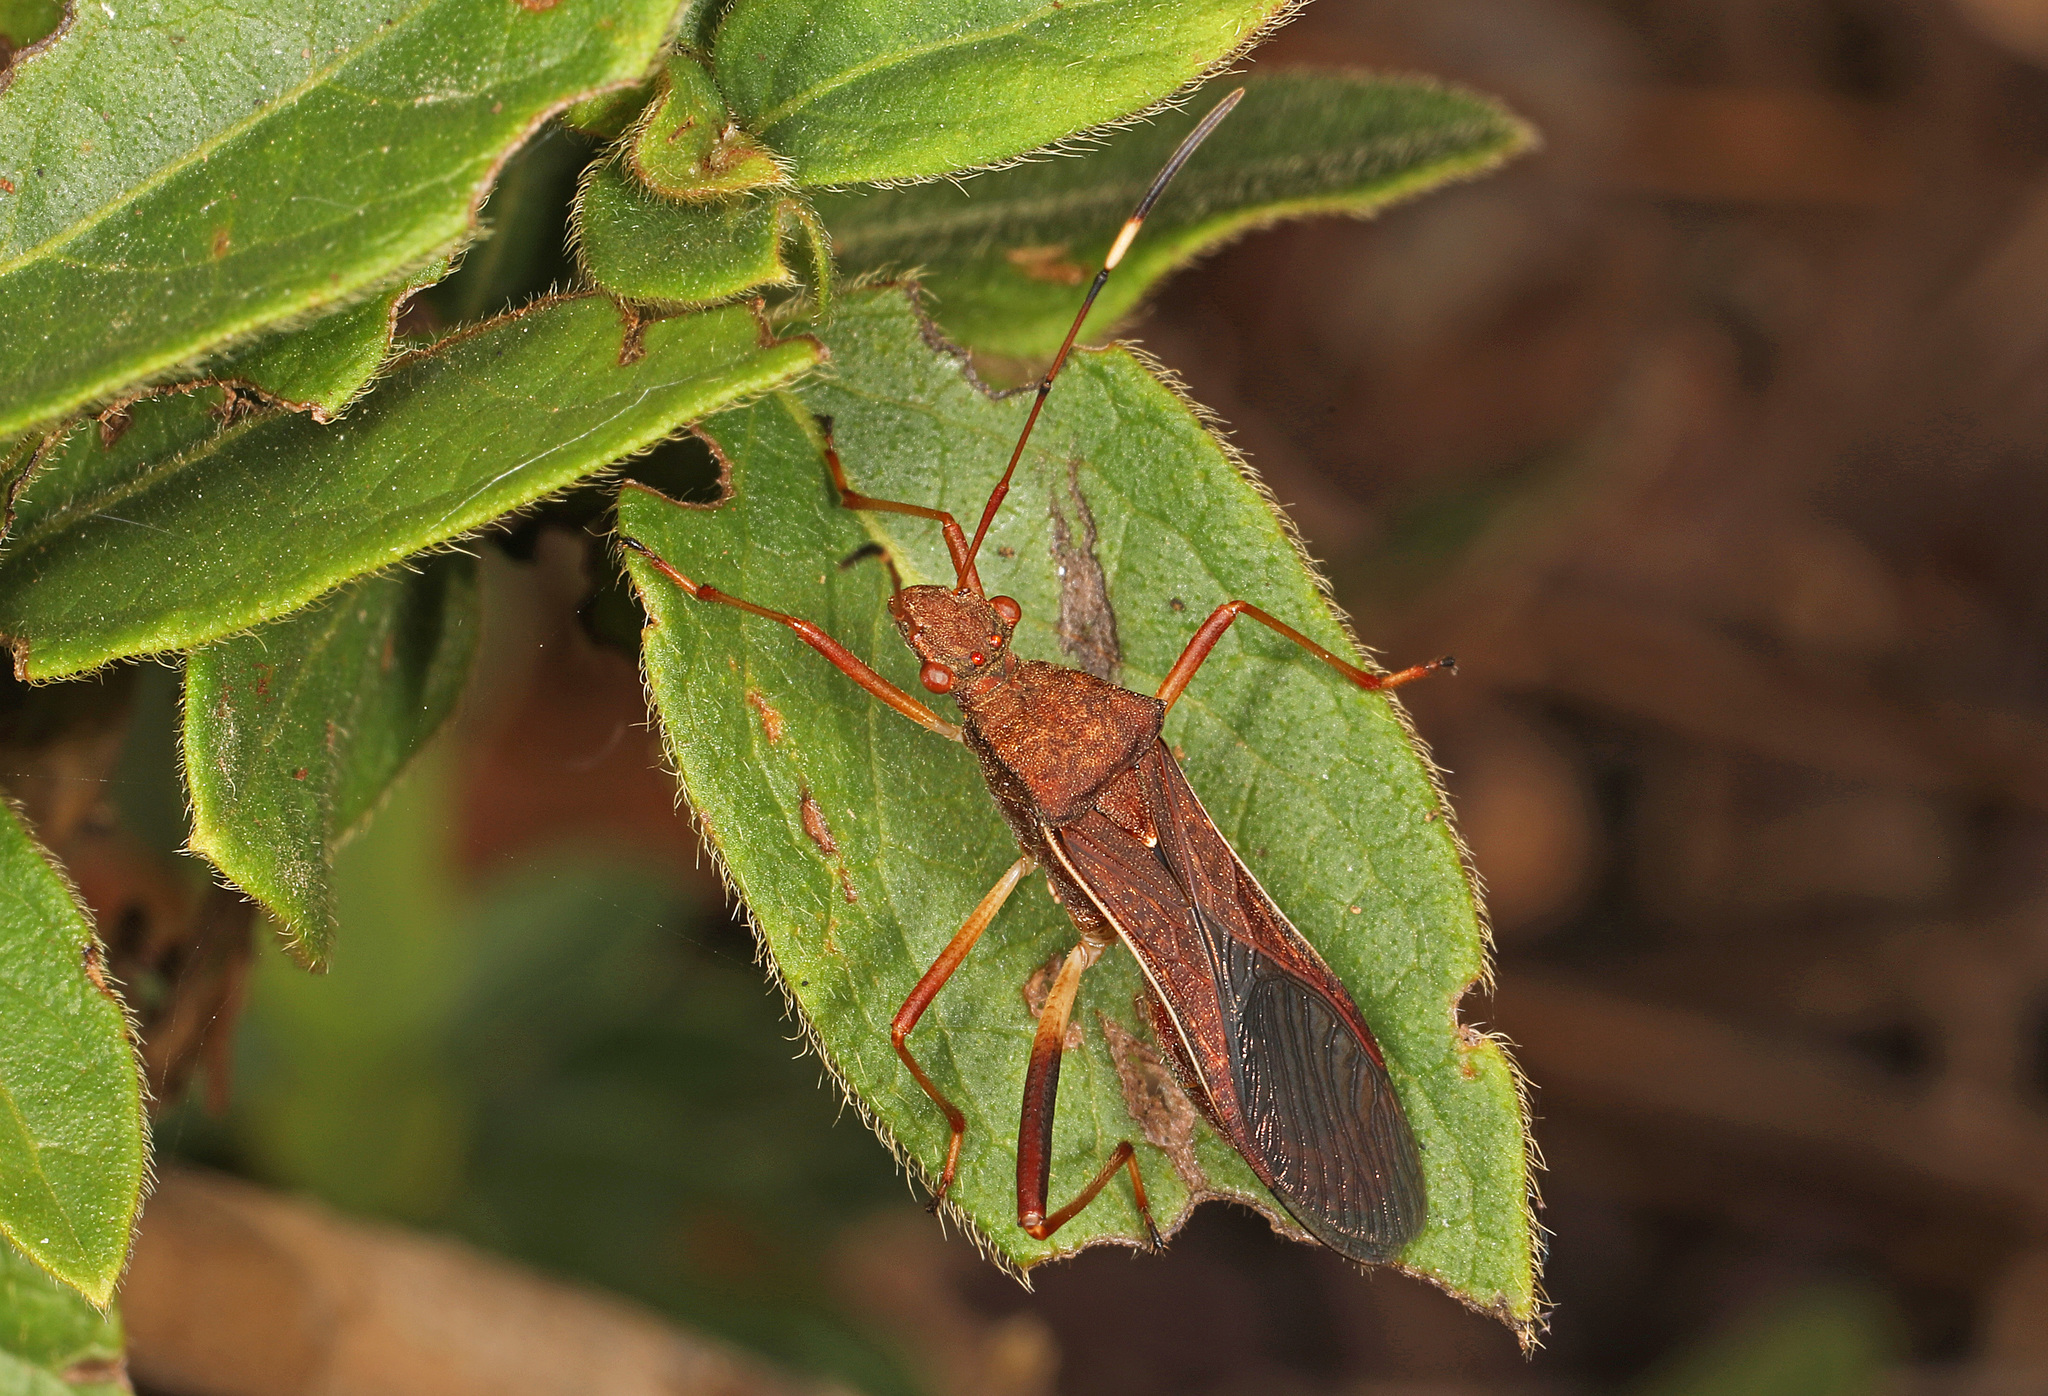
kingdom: Animalia
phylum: Arthropoda
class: Insecta
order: Hemiptera
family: Alydidae
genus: Megalotomus
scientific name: Megalotomus quinquespinosus
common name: Lupine bug
